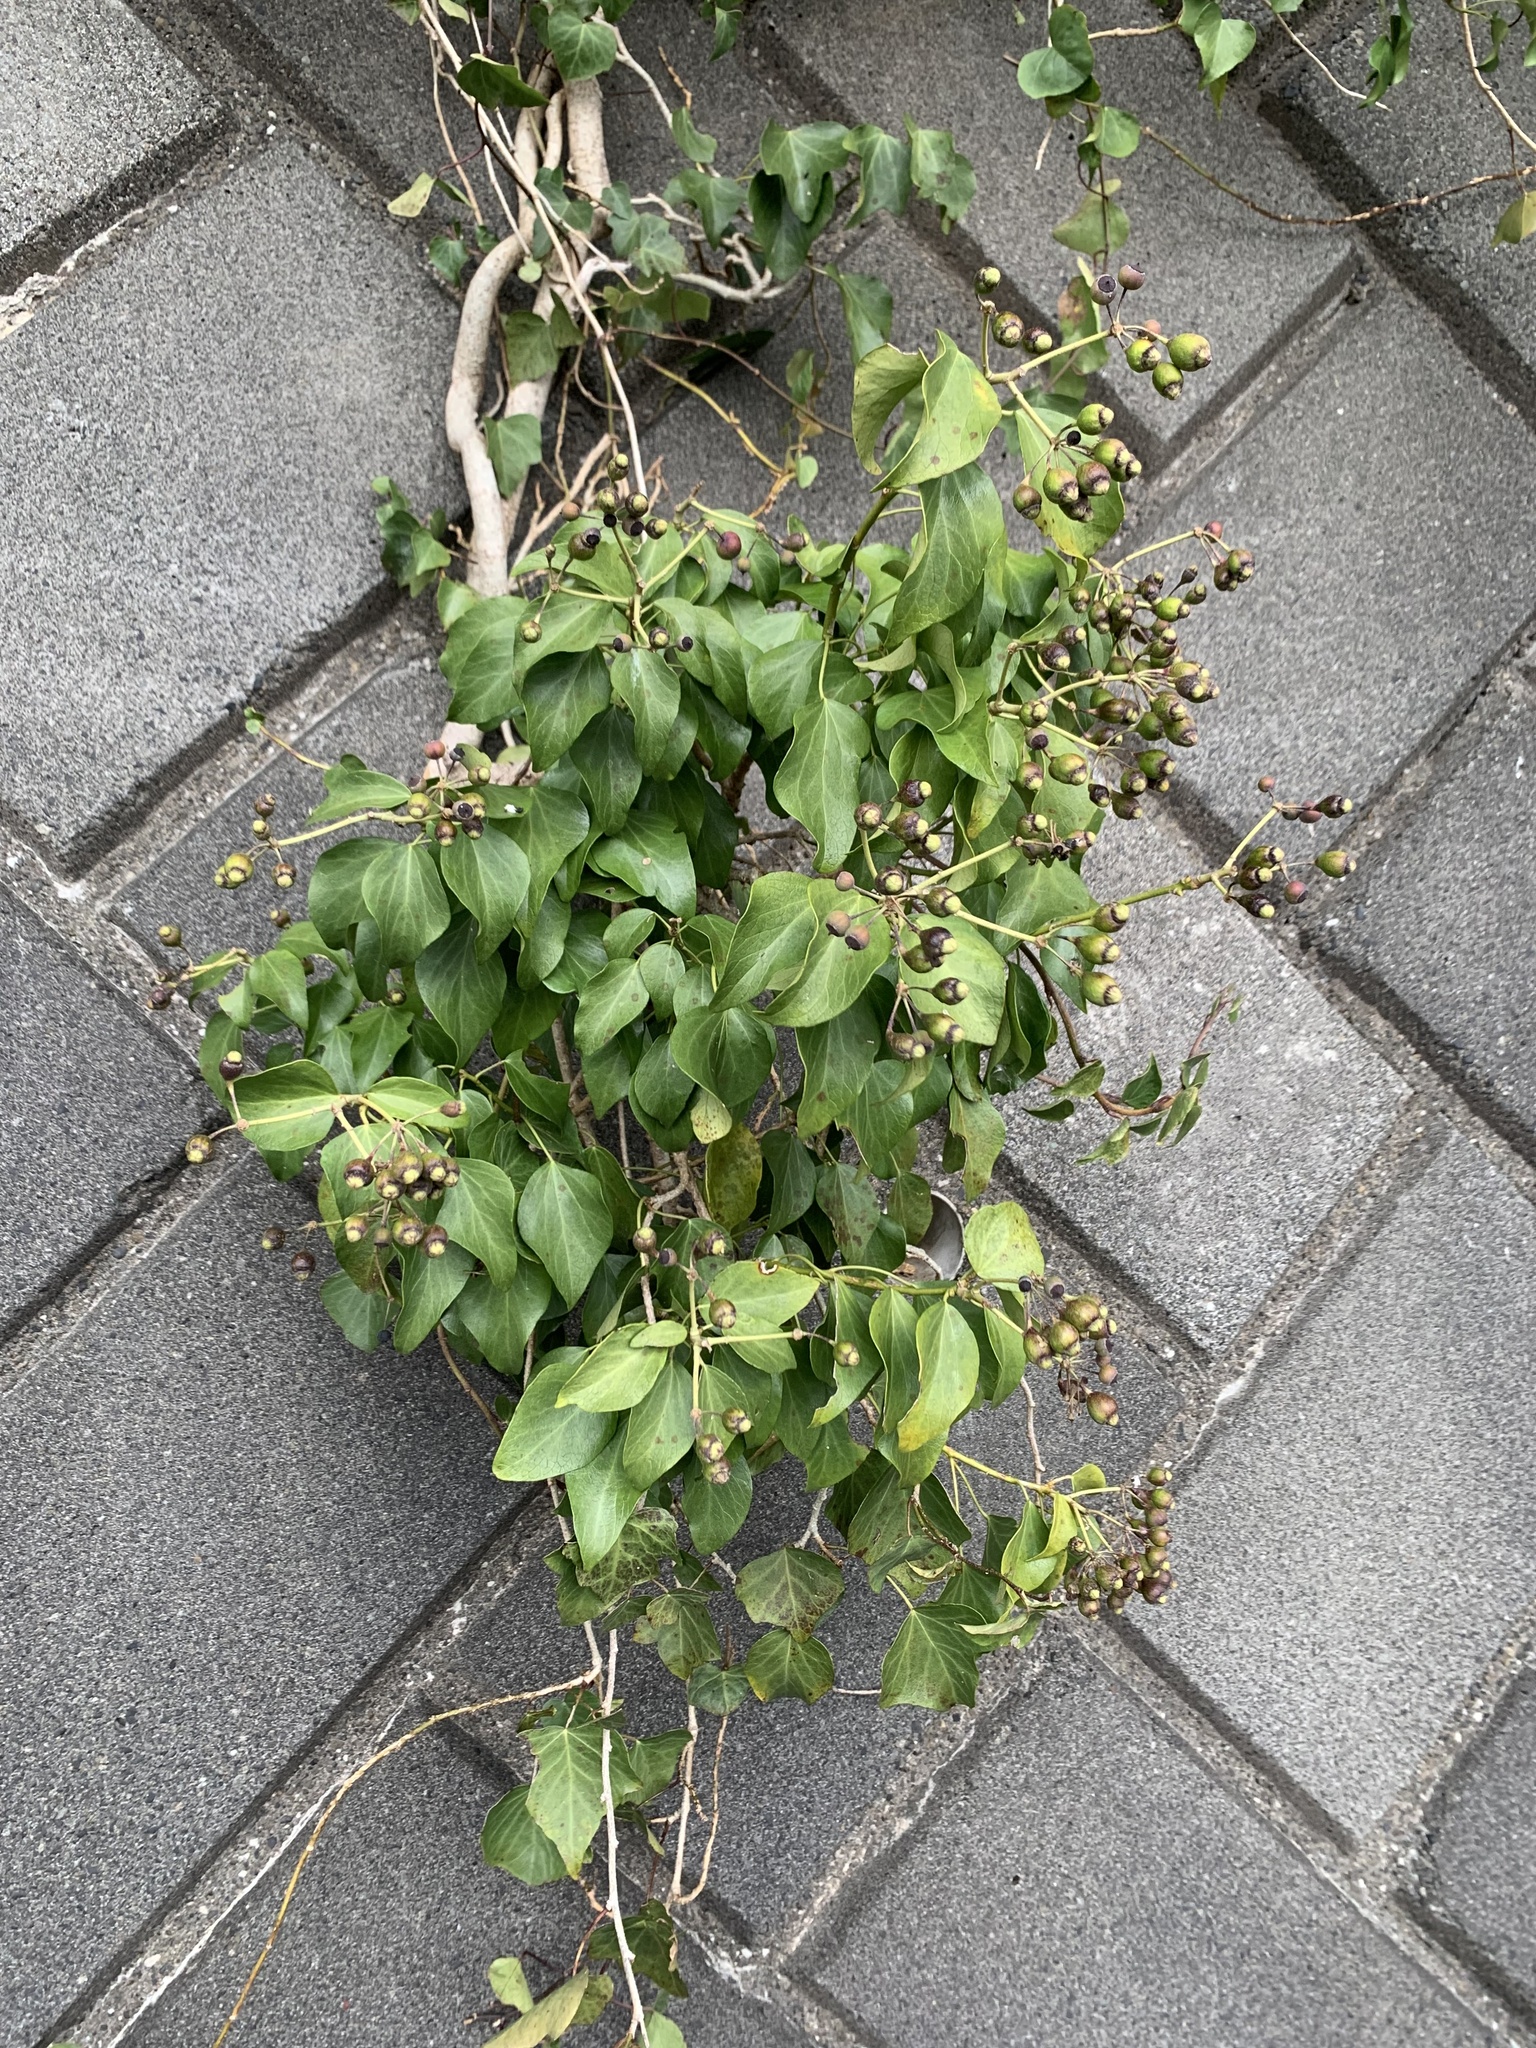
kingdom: Plantae
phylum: Tracheophyta
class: Magnoliopsida
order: Apiales
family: Araliaceae
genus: Hedera
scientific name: Hedera rhombea
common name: Japanese ivy
